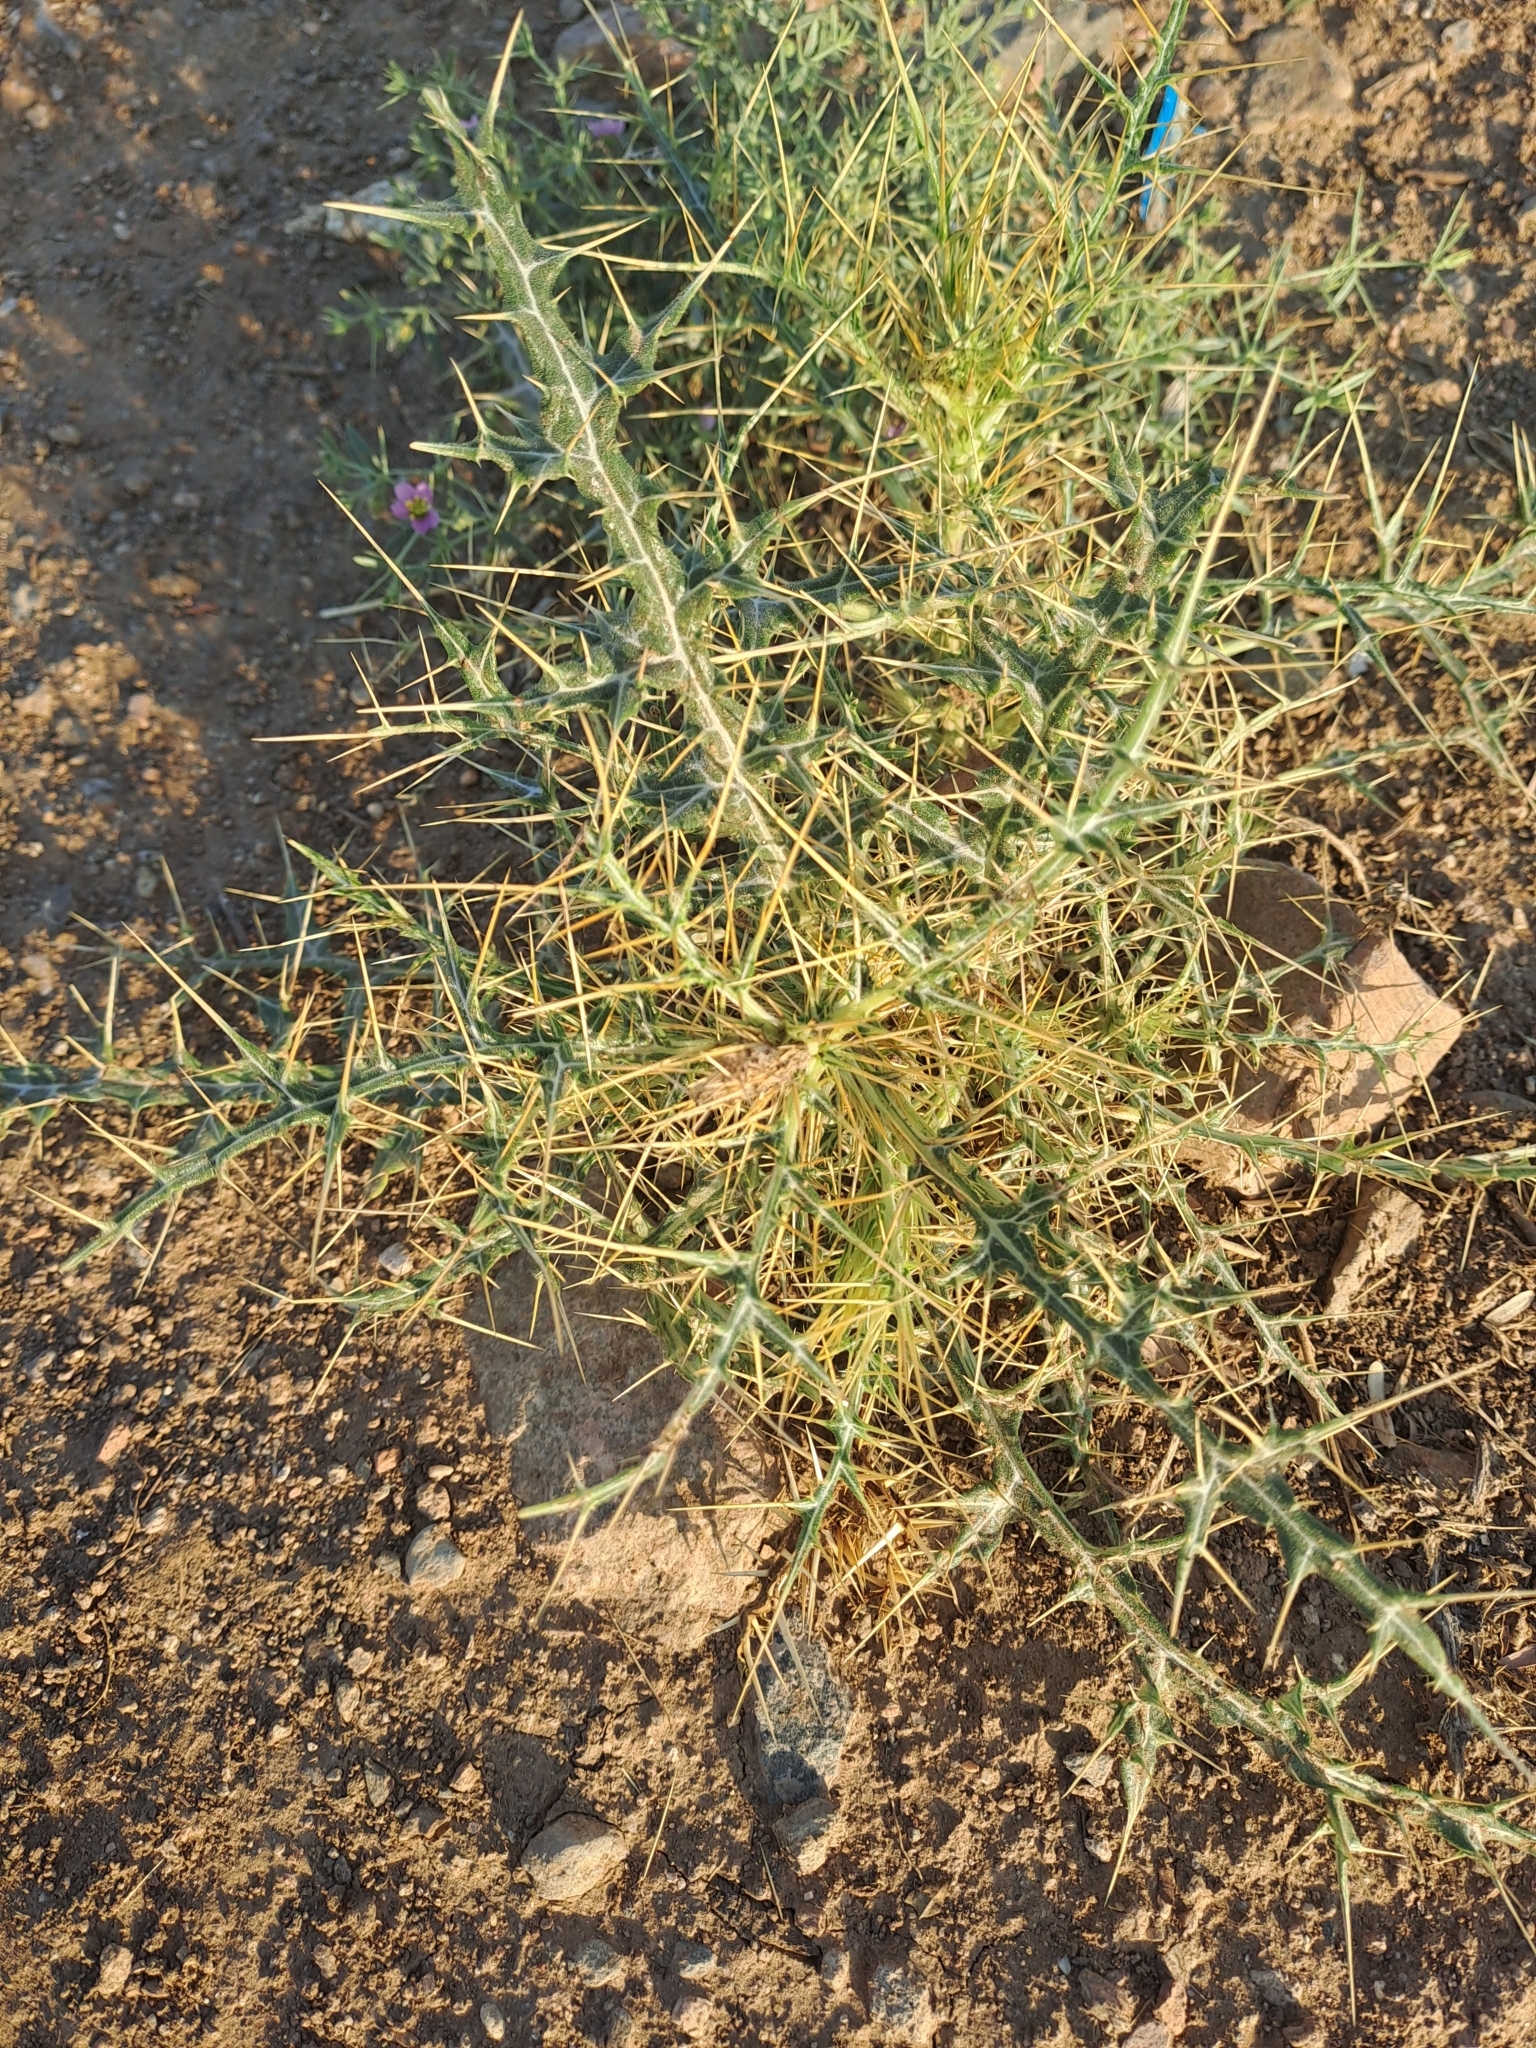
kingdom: Plantae
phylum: Tracheophyta
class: Magnoliopsida
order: Asterales
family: Asteraceae
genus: Echinops
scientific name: Echinops echinatus
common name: Indian globe thistle
